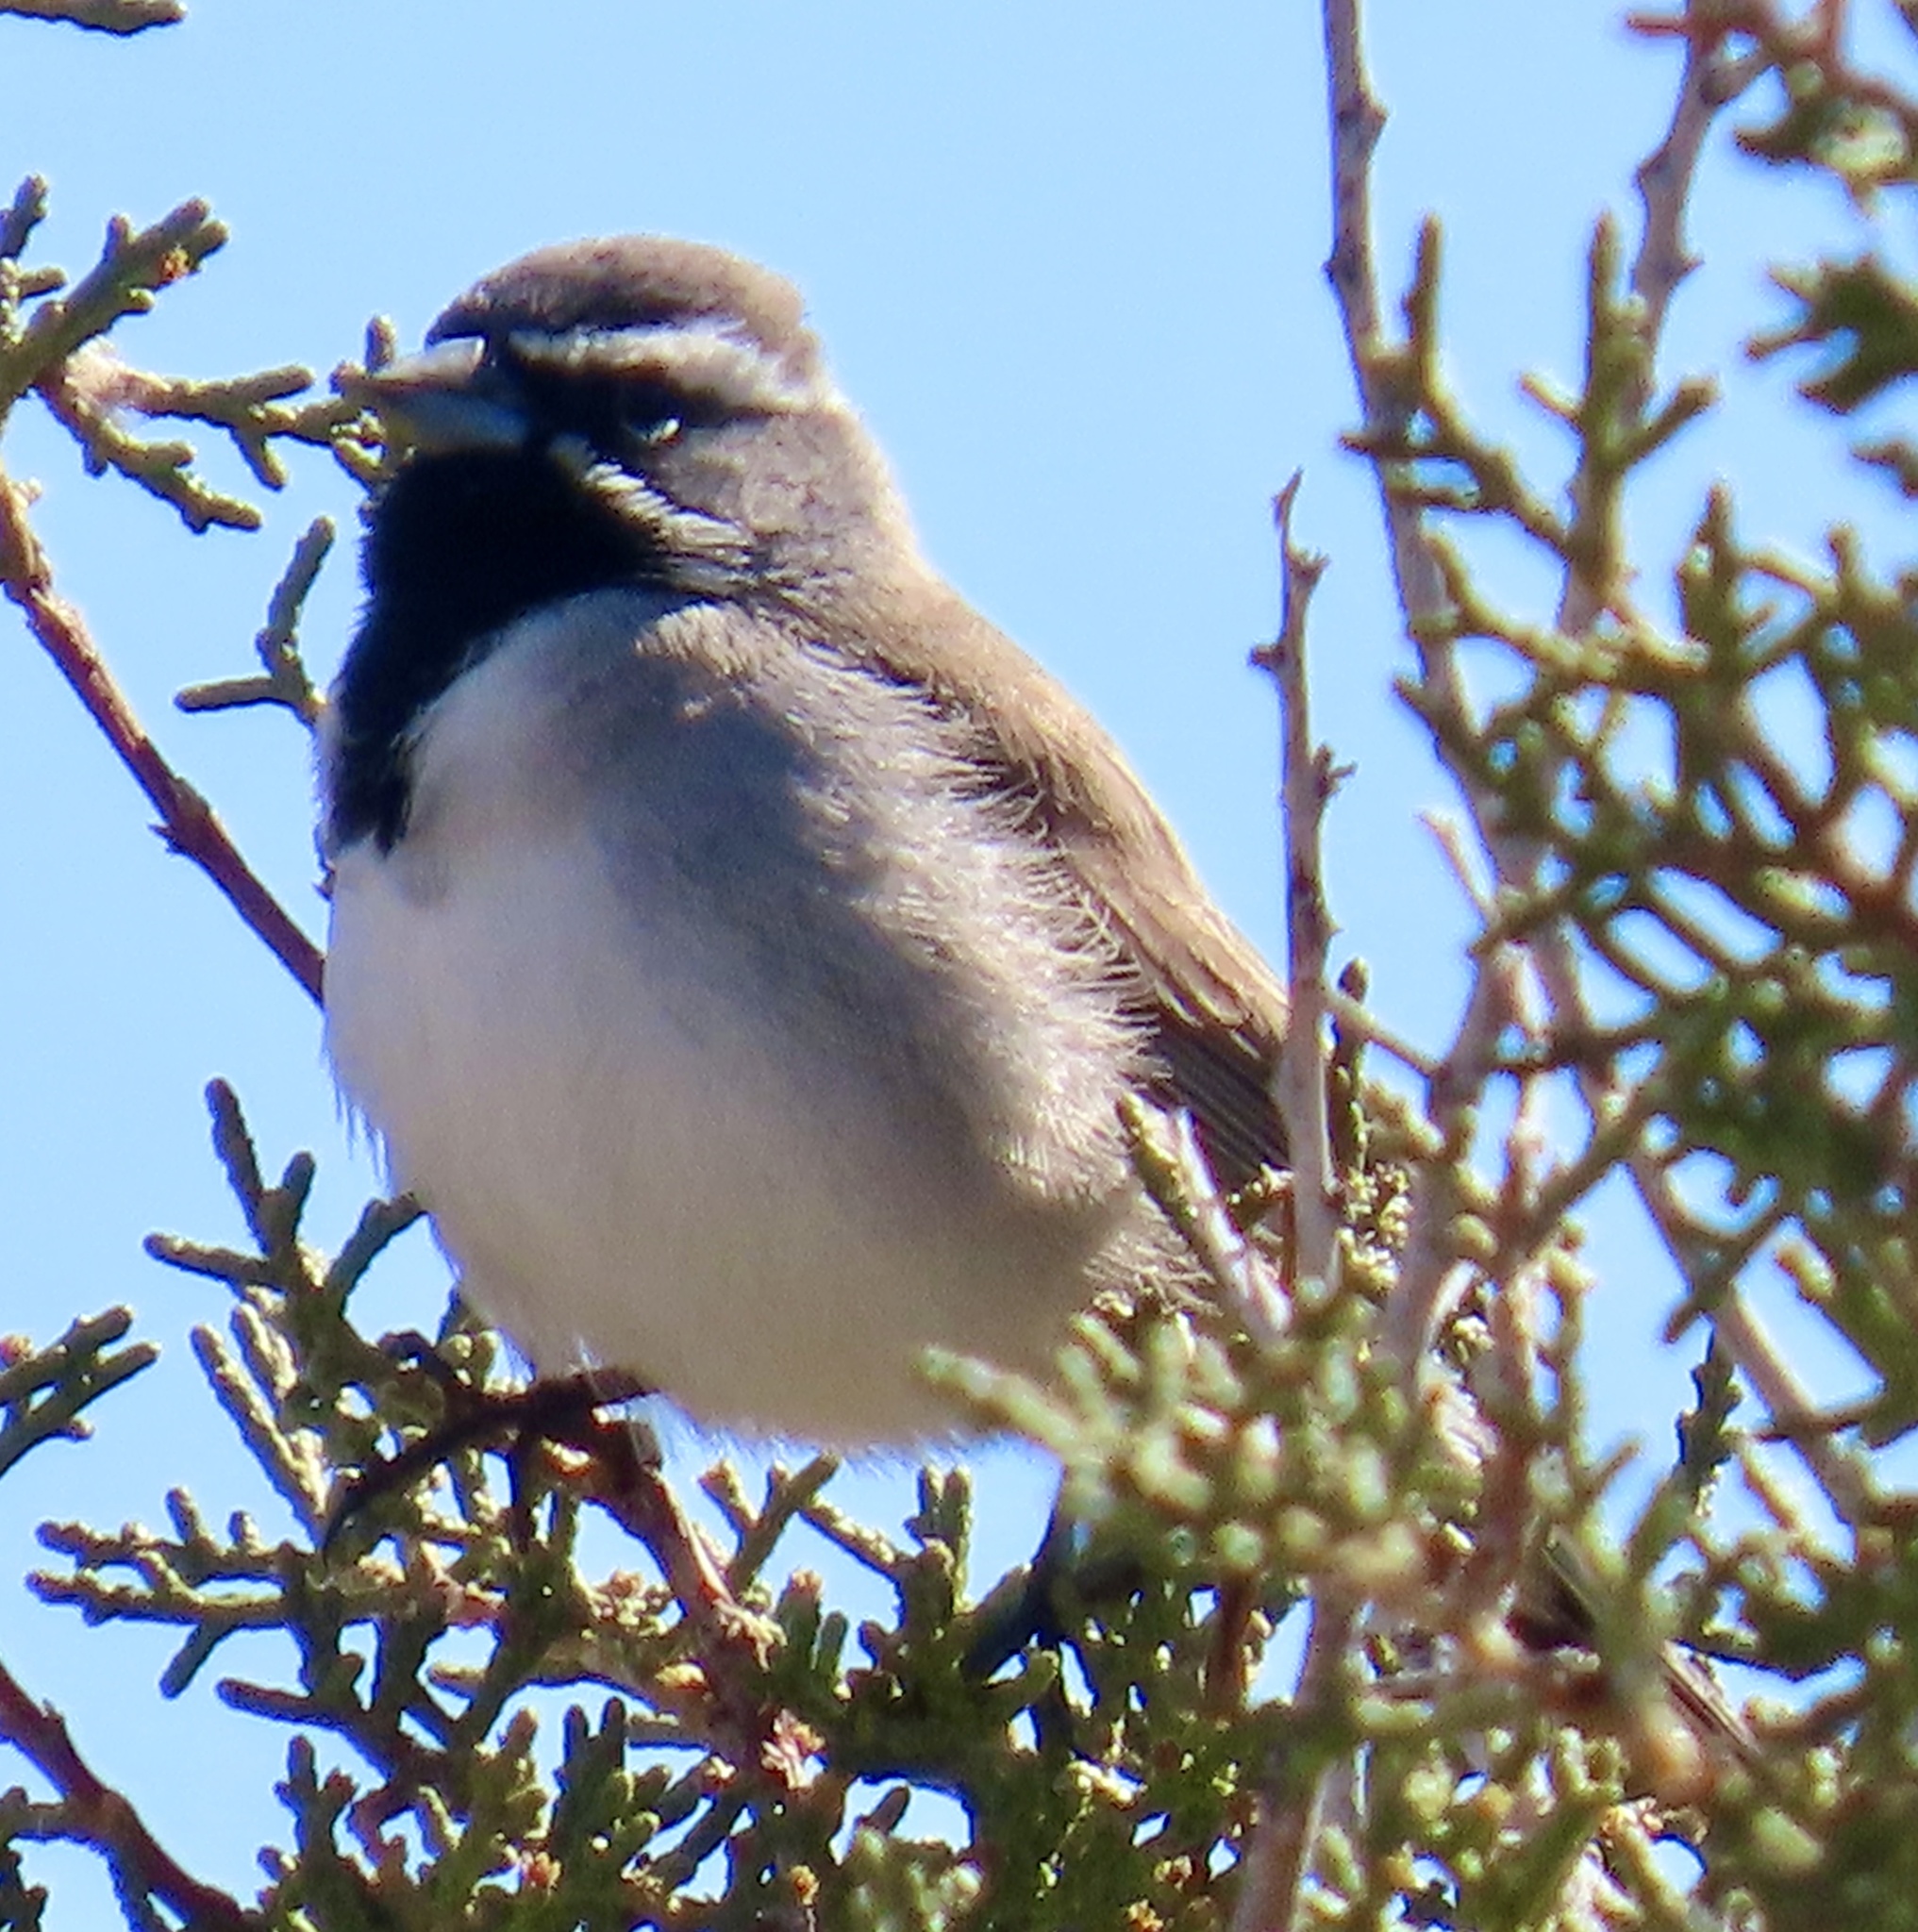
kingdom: Animalia
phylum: Chordata
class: Aves
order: Passeriformes
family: Passerellidae
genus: Amphispiza
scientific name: Amphispiza bilineata
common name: Black-throated sparrow
